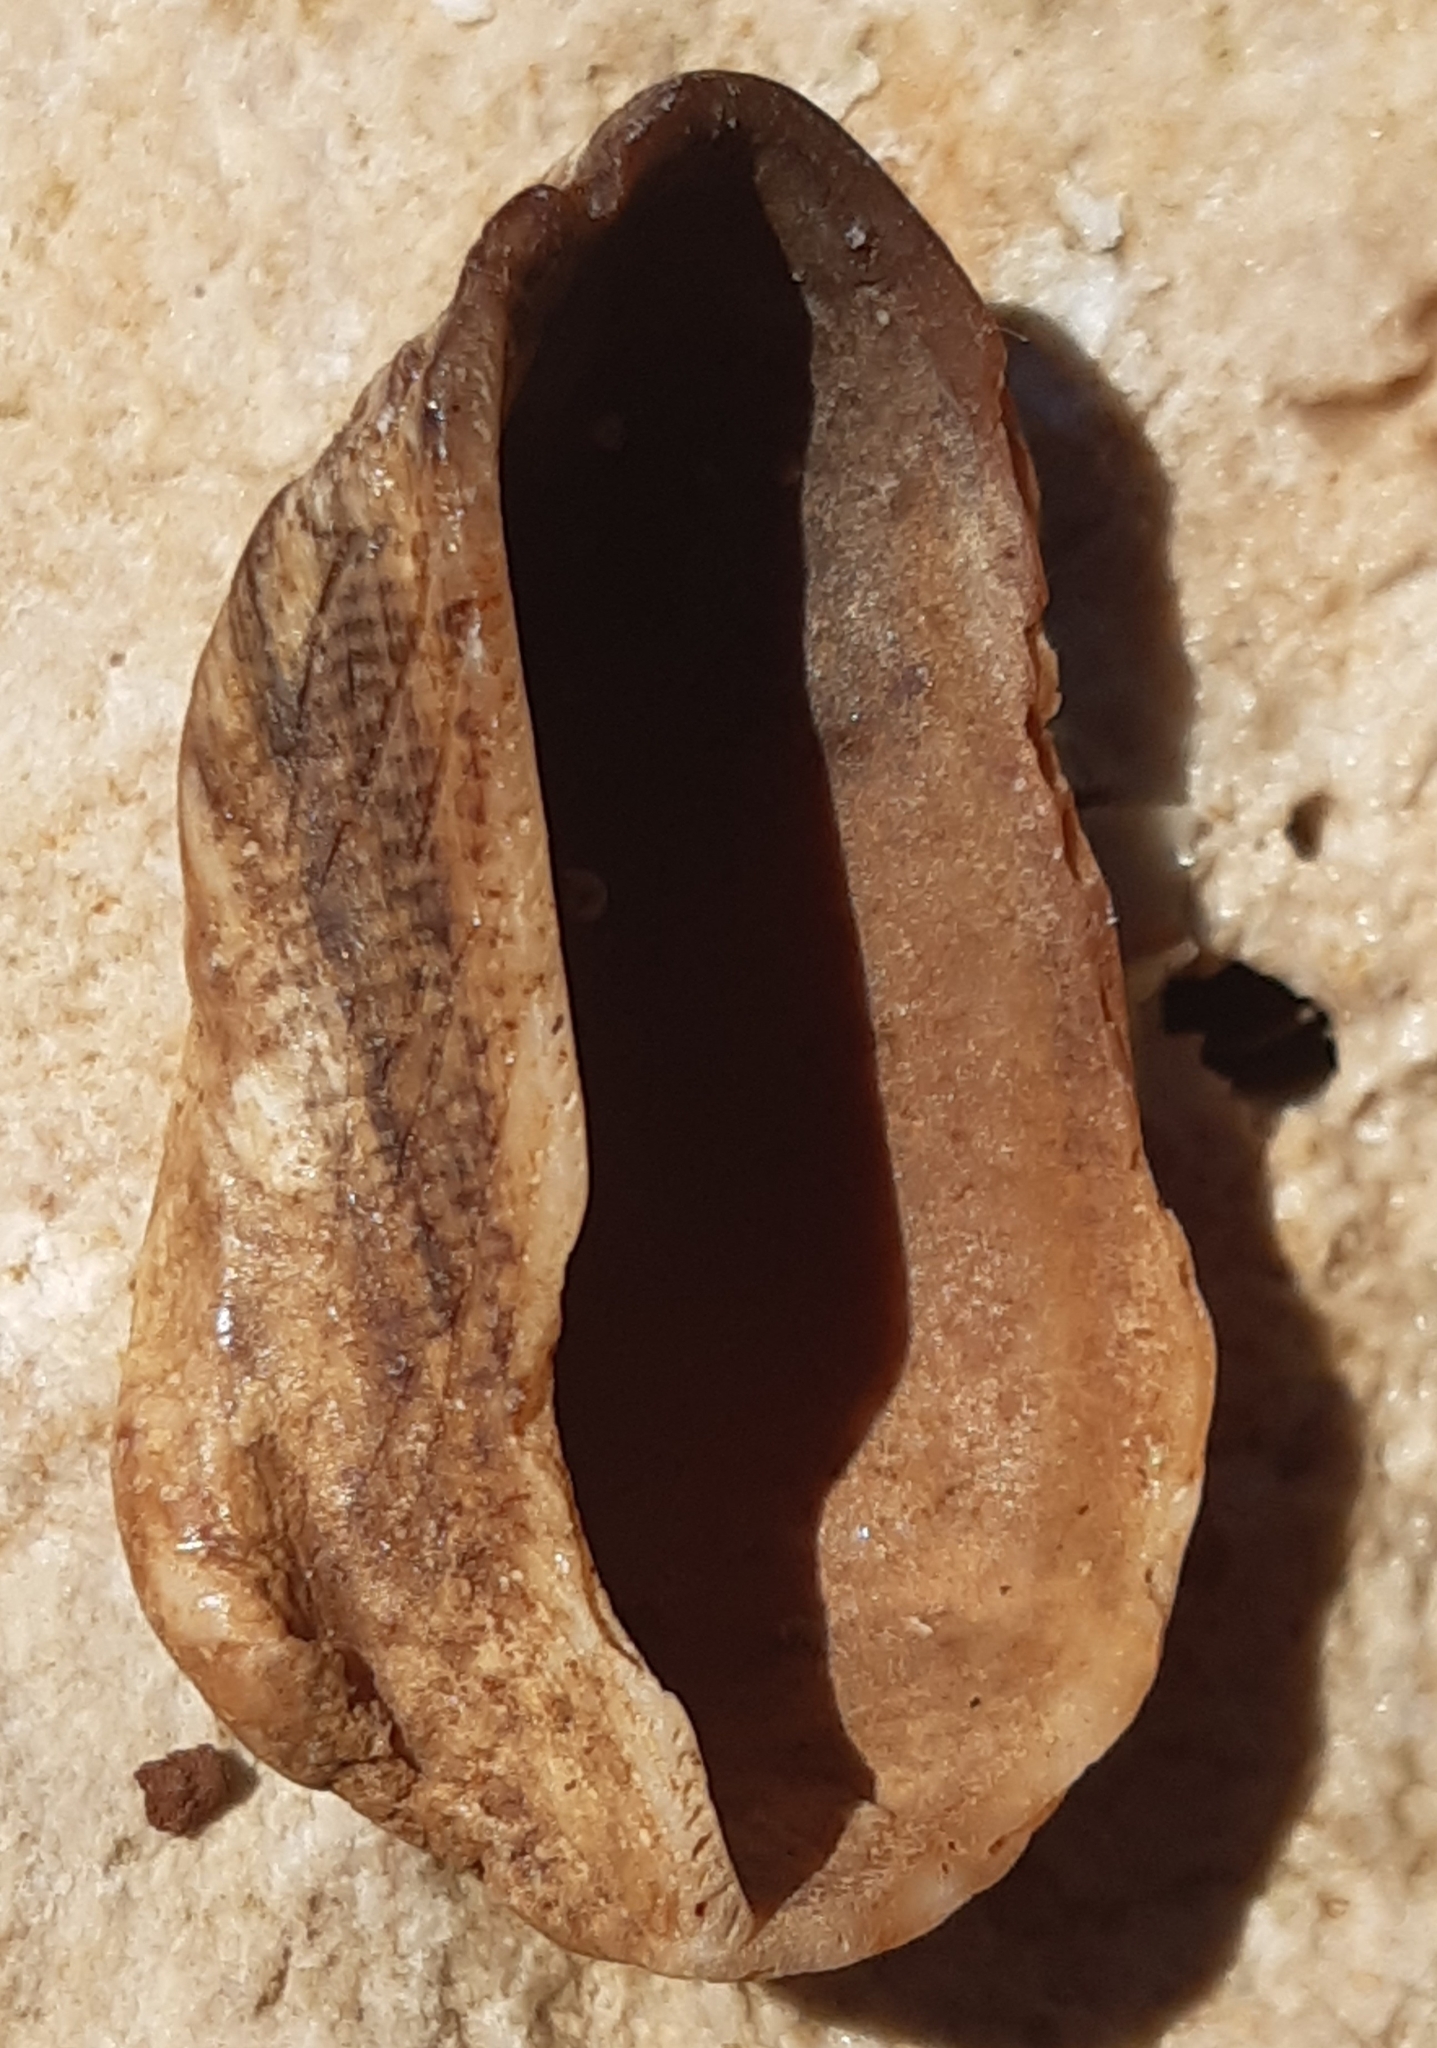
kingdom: Animalia
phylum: Mollusca
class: Bivalvia
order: Arcida
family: Arcidae
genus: Arca
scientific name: Arca noae
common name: Noah's arch
